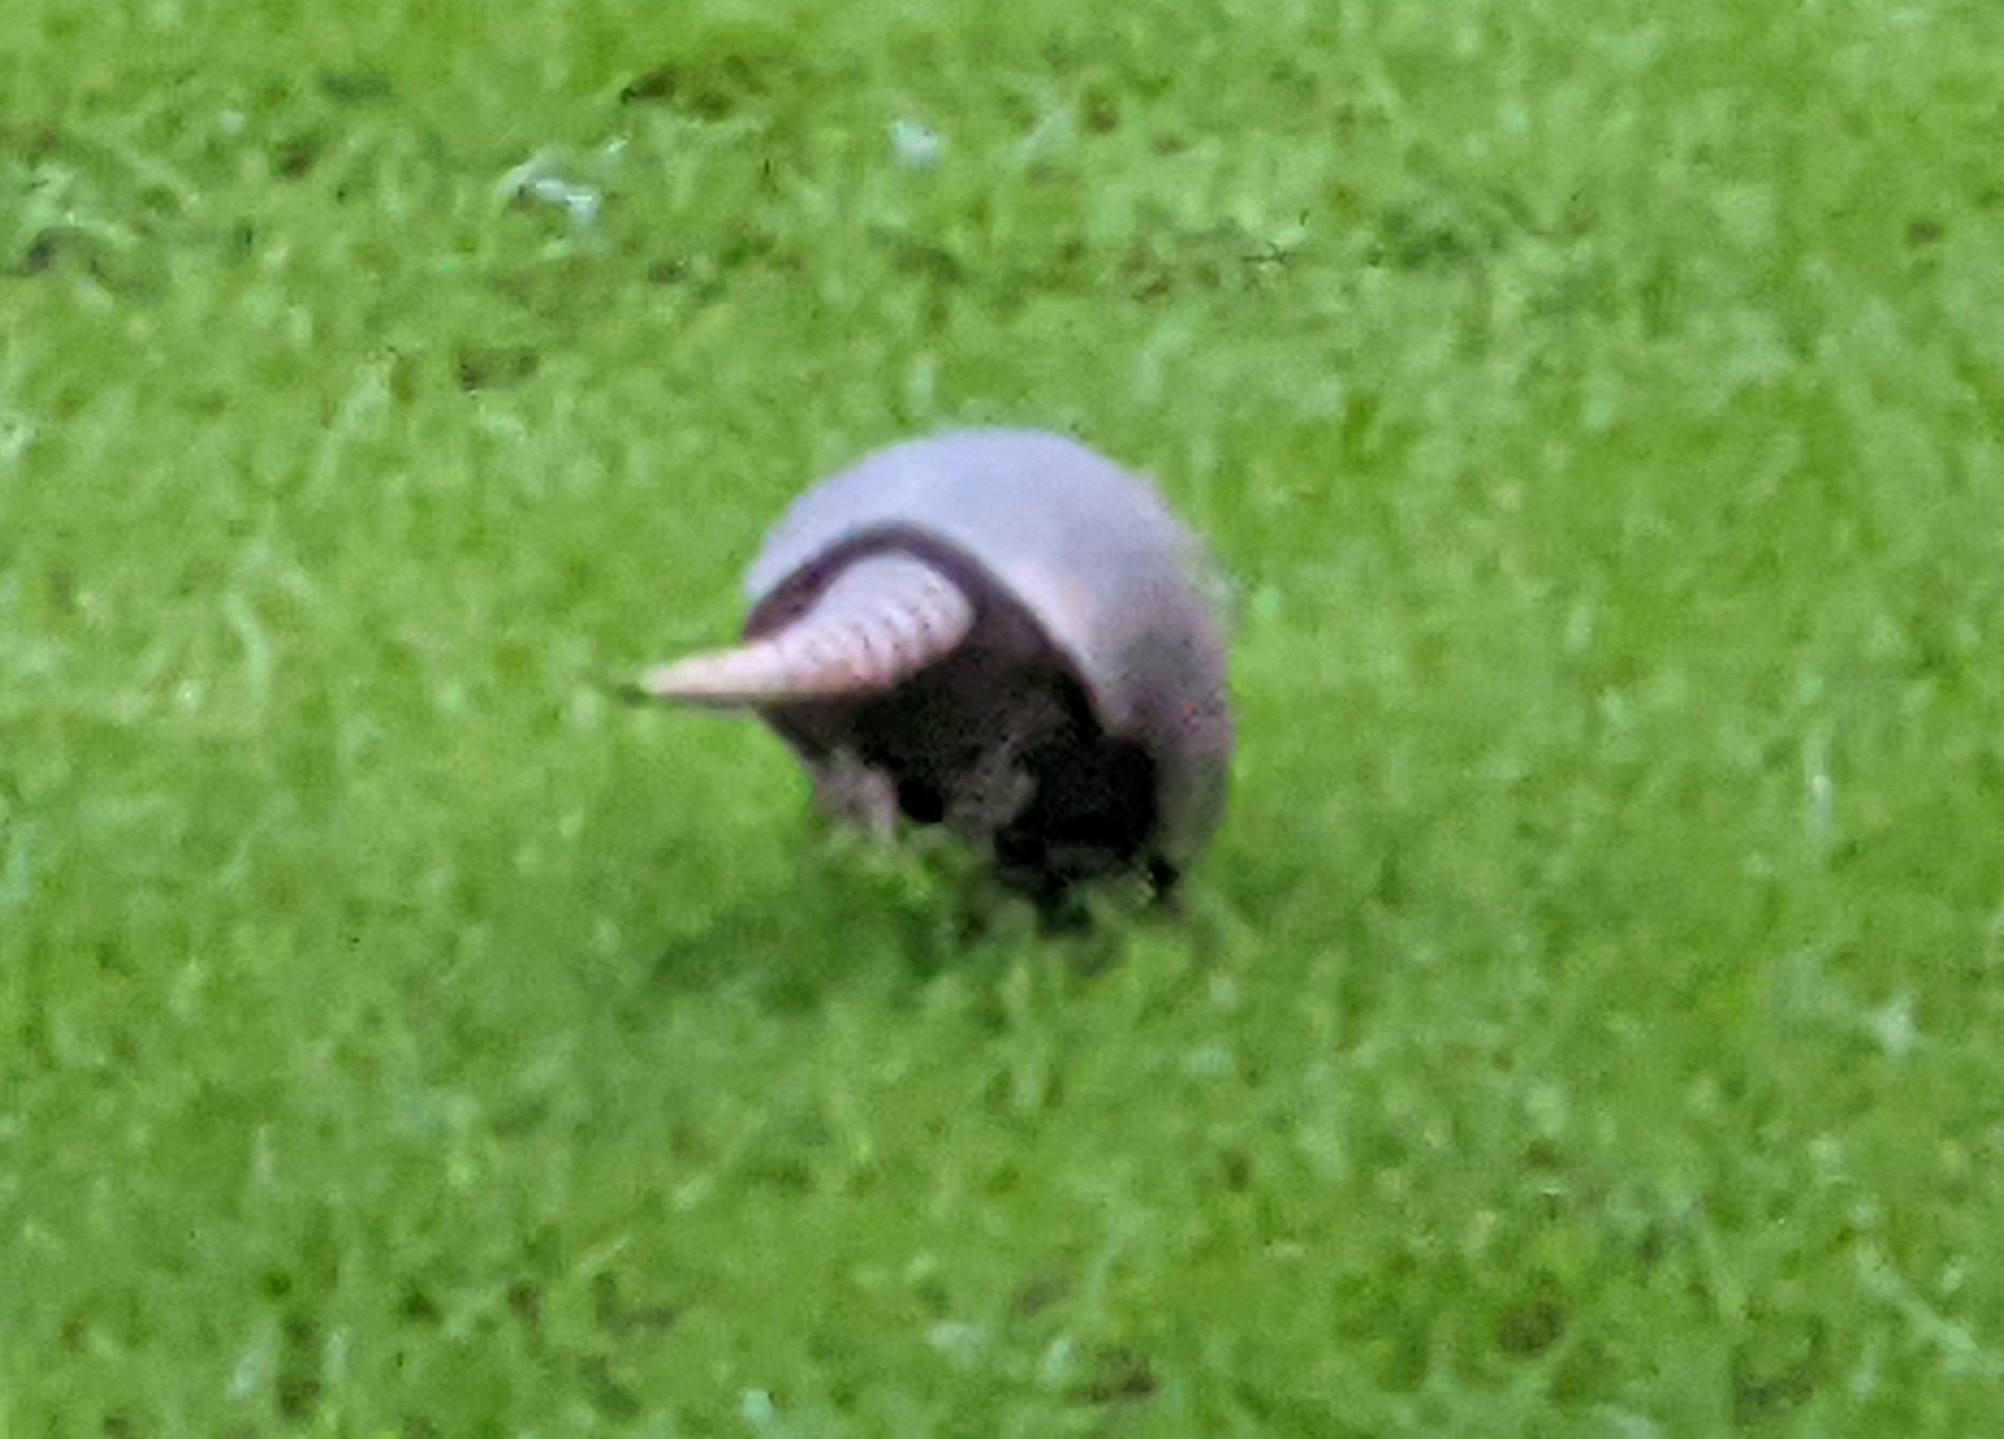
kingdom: Animalia
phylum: Chordata
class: Mammalia
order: Cingulata
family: Dasypodidae
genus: Dasypus
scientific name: Dasypus novemcinctus
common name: Nine-banded armadillo
